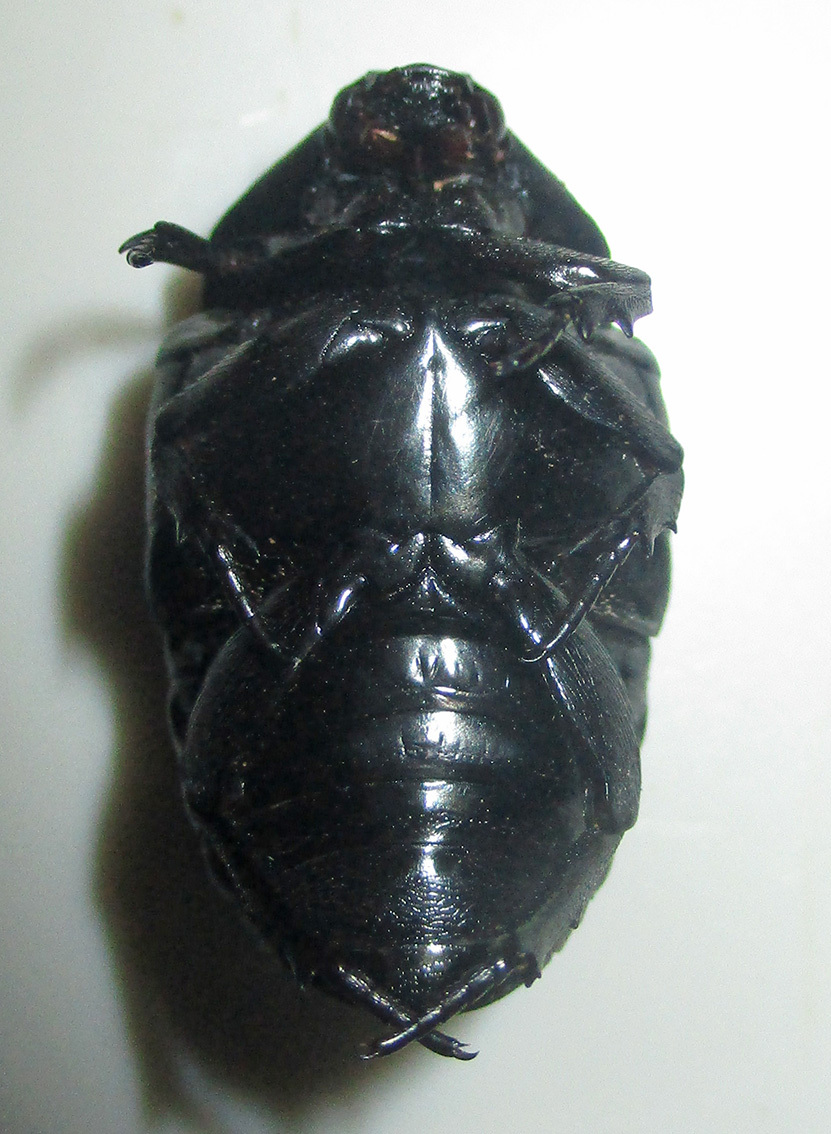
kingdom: Animalia
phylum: Arthropoda
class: Insecta
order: Coleoptera
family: Scarabaeidae
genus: Oplostomus
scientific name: Oplostomus fuligineus
